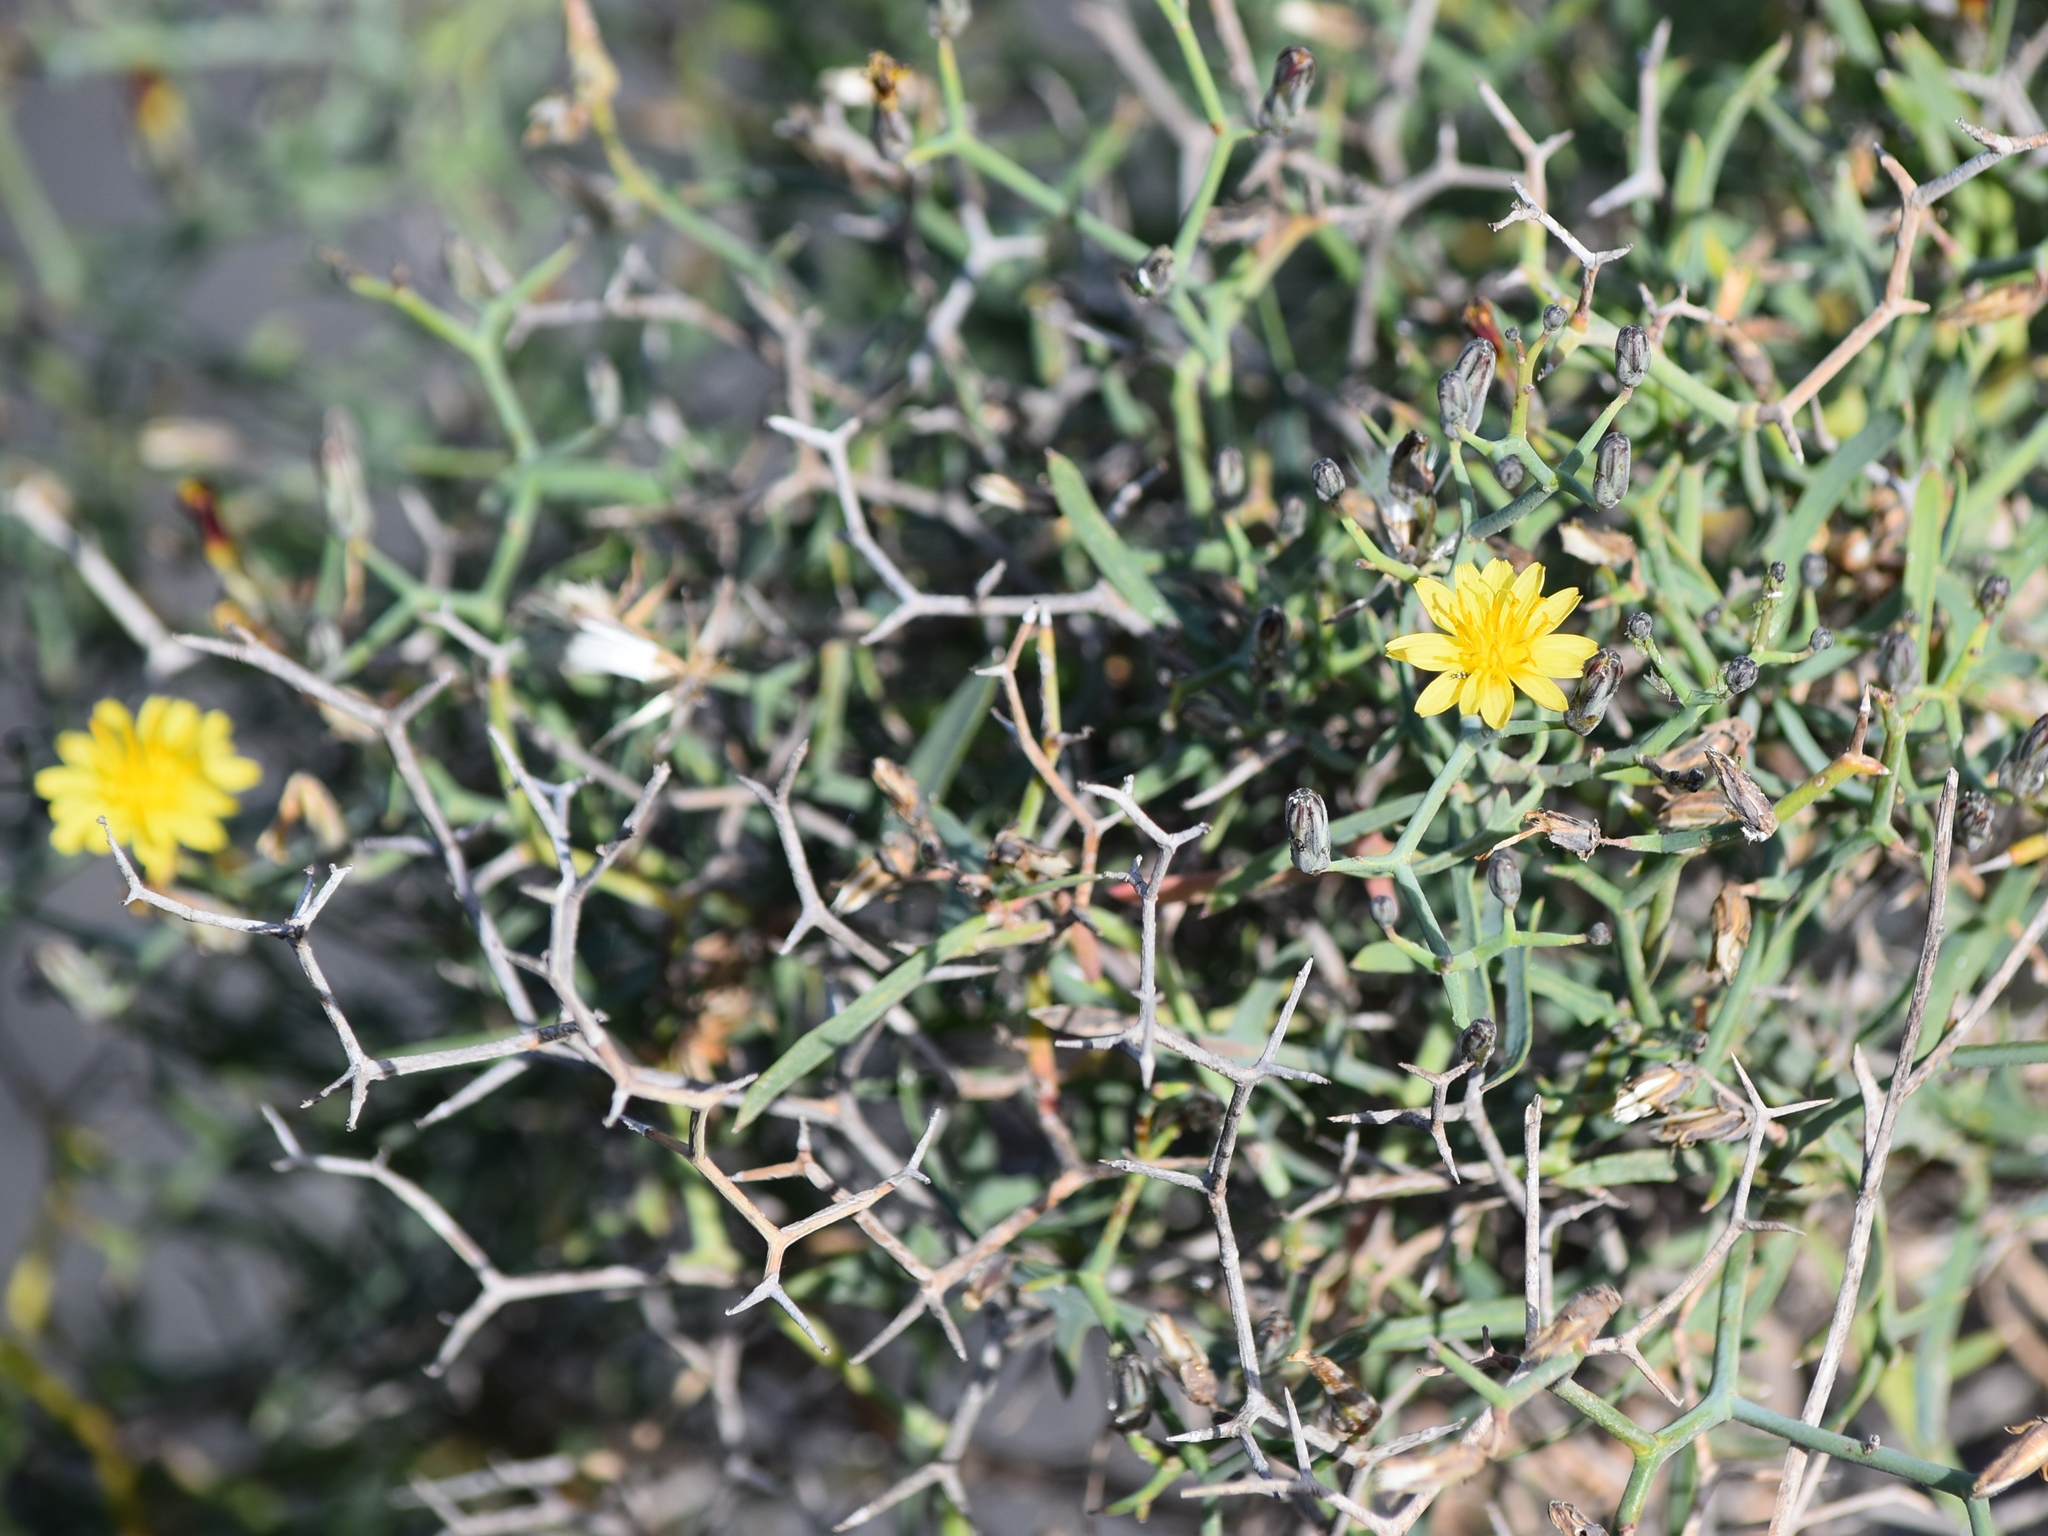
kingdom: Plantae
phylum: Tracheophyta
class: Magnoliopsida
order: Asterales
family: Asteraceae
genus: Launaea
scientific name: Launaea arborescens
